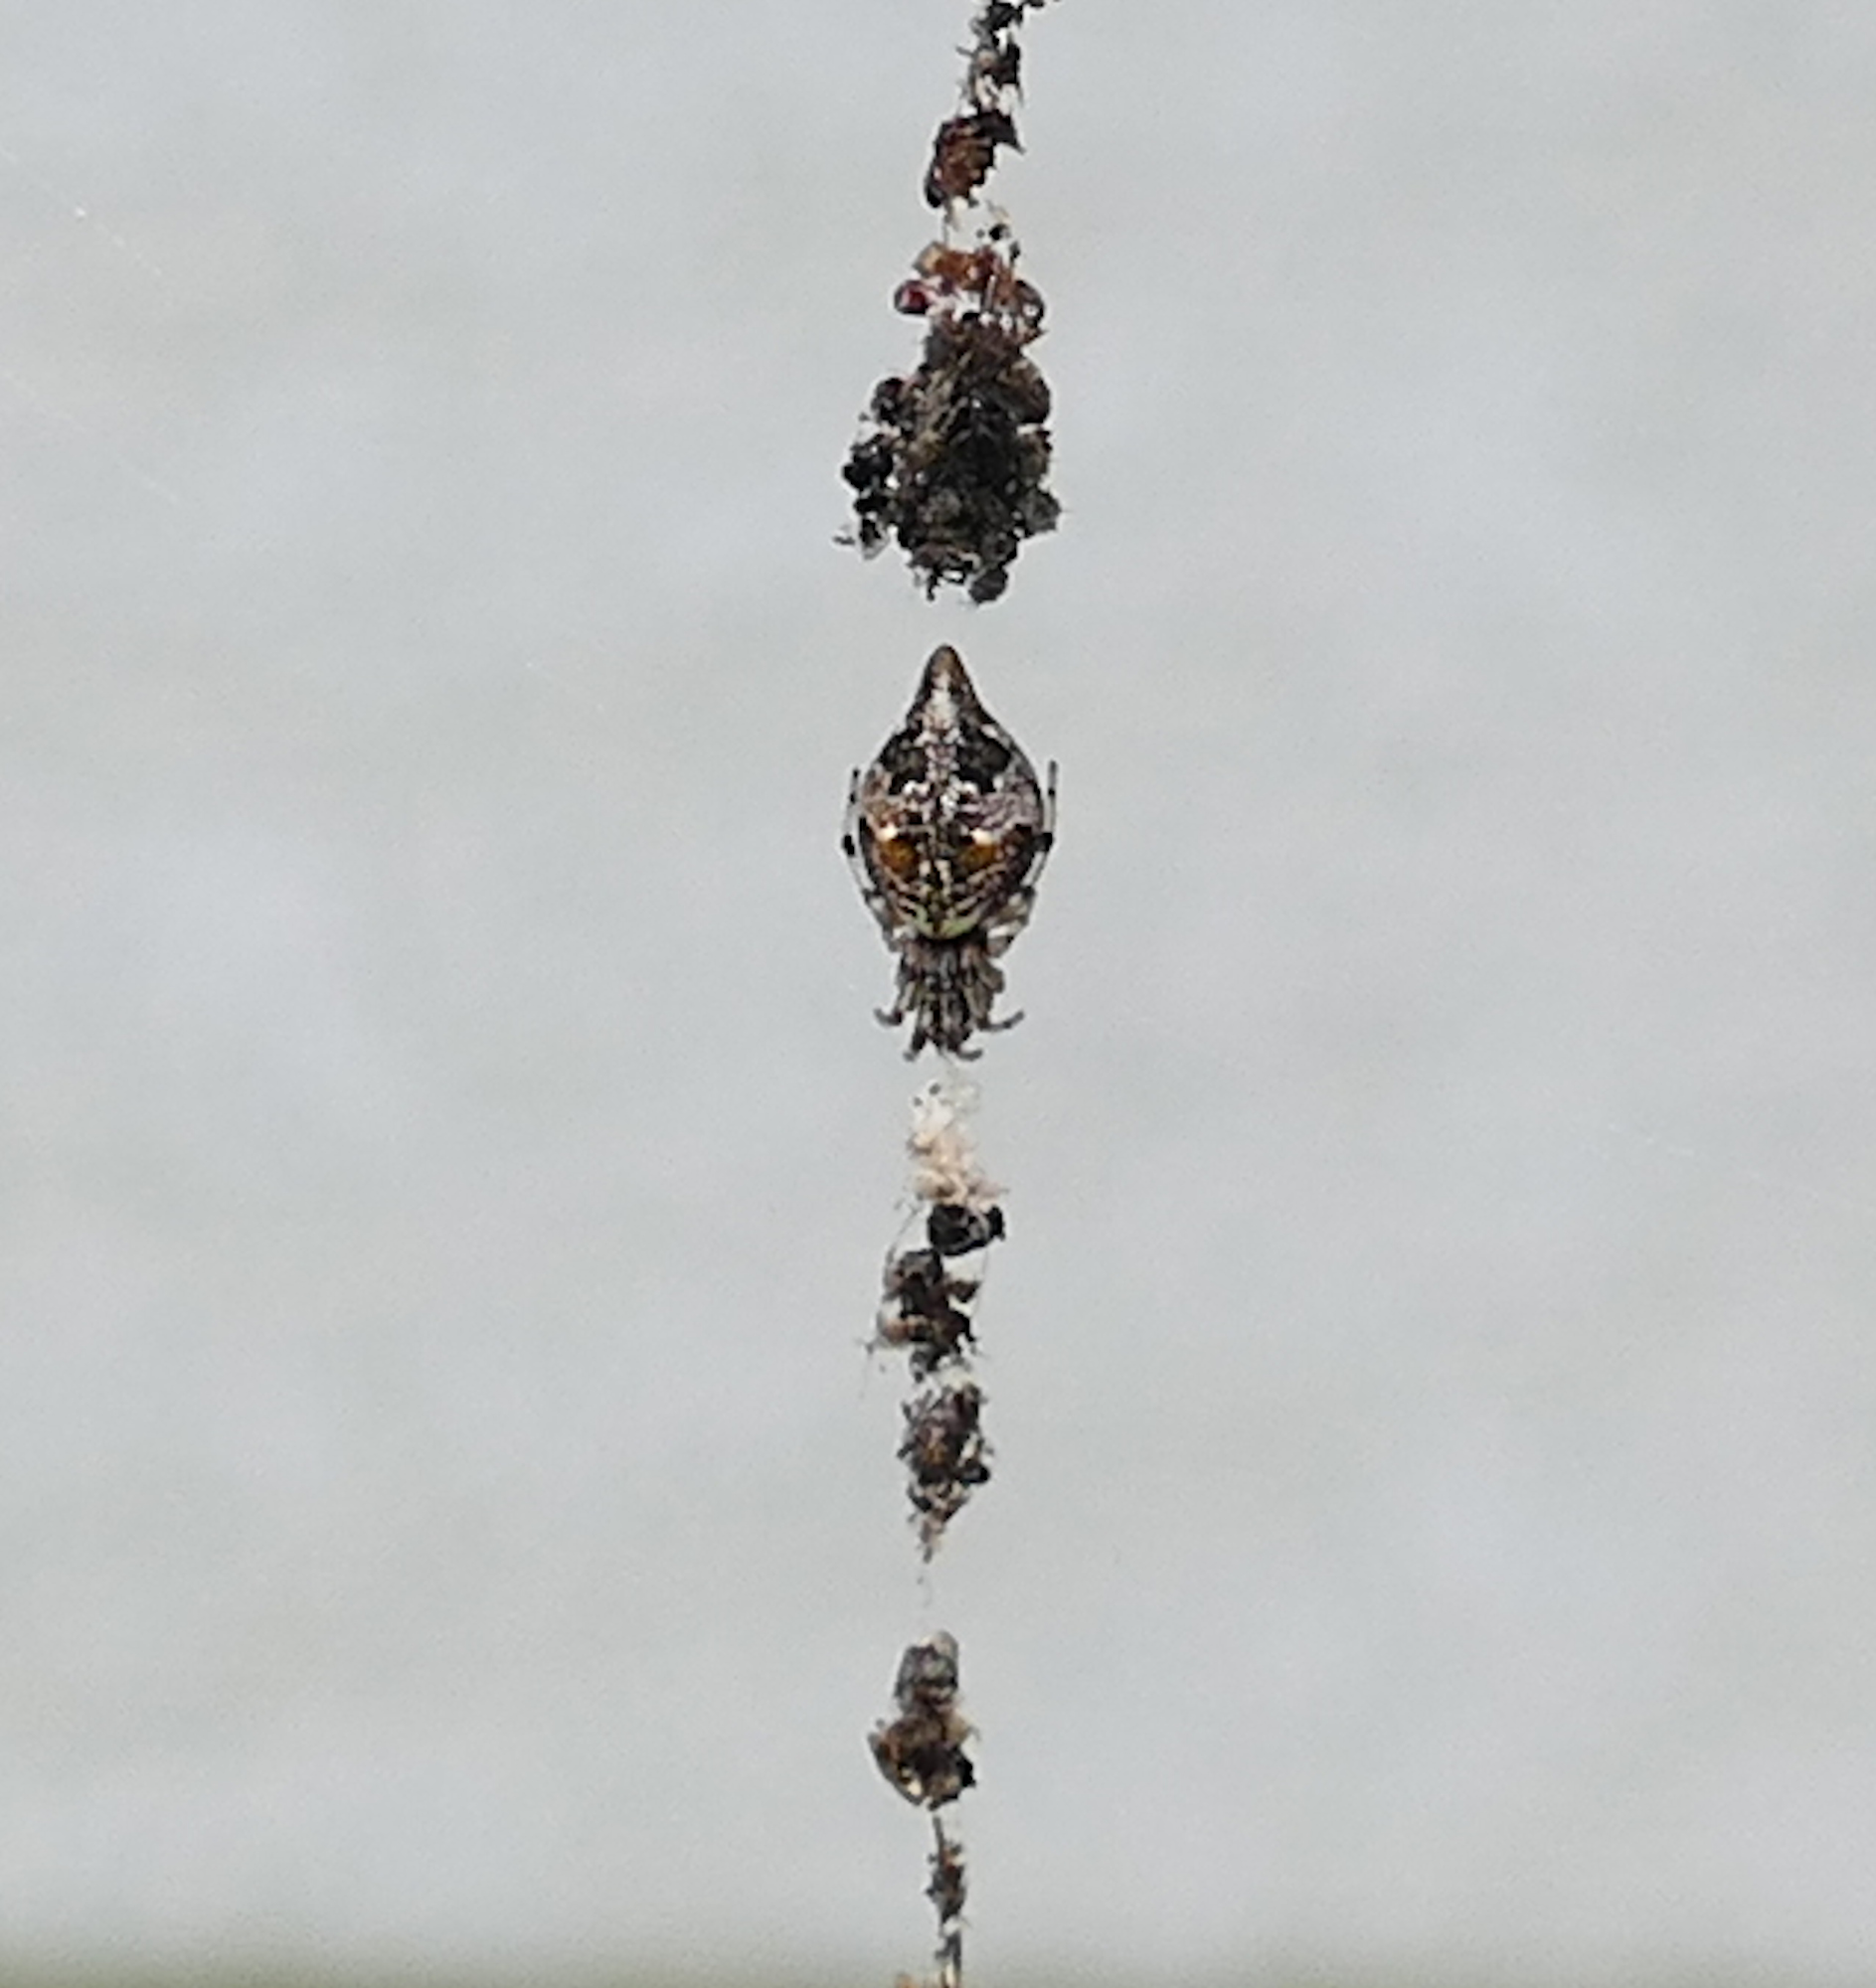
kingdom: Animalia
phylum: Arthropoda
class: Arachnida
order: Araneae
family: Araneidae
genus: Cyclosa
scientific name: Cyclosa turbinata
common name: Orb weavers
